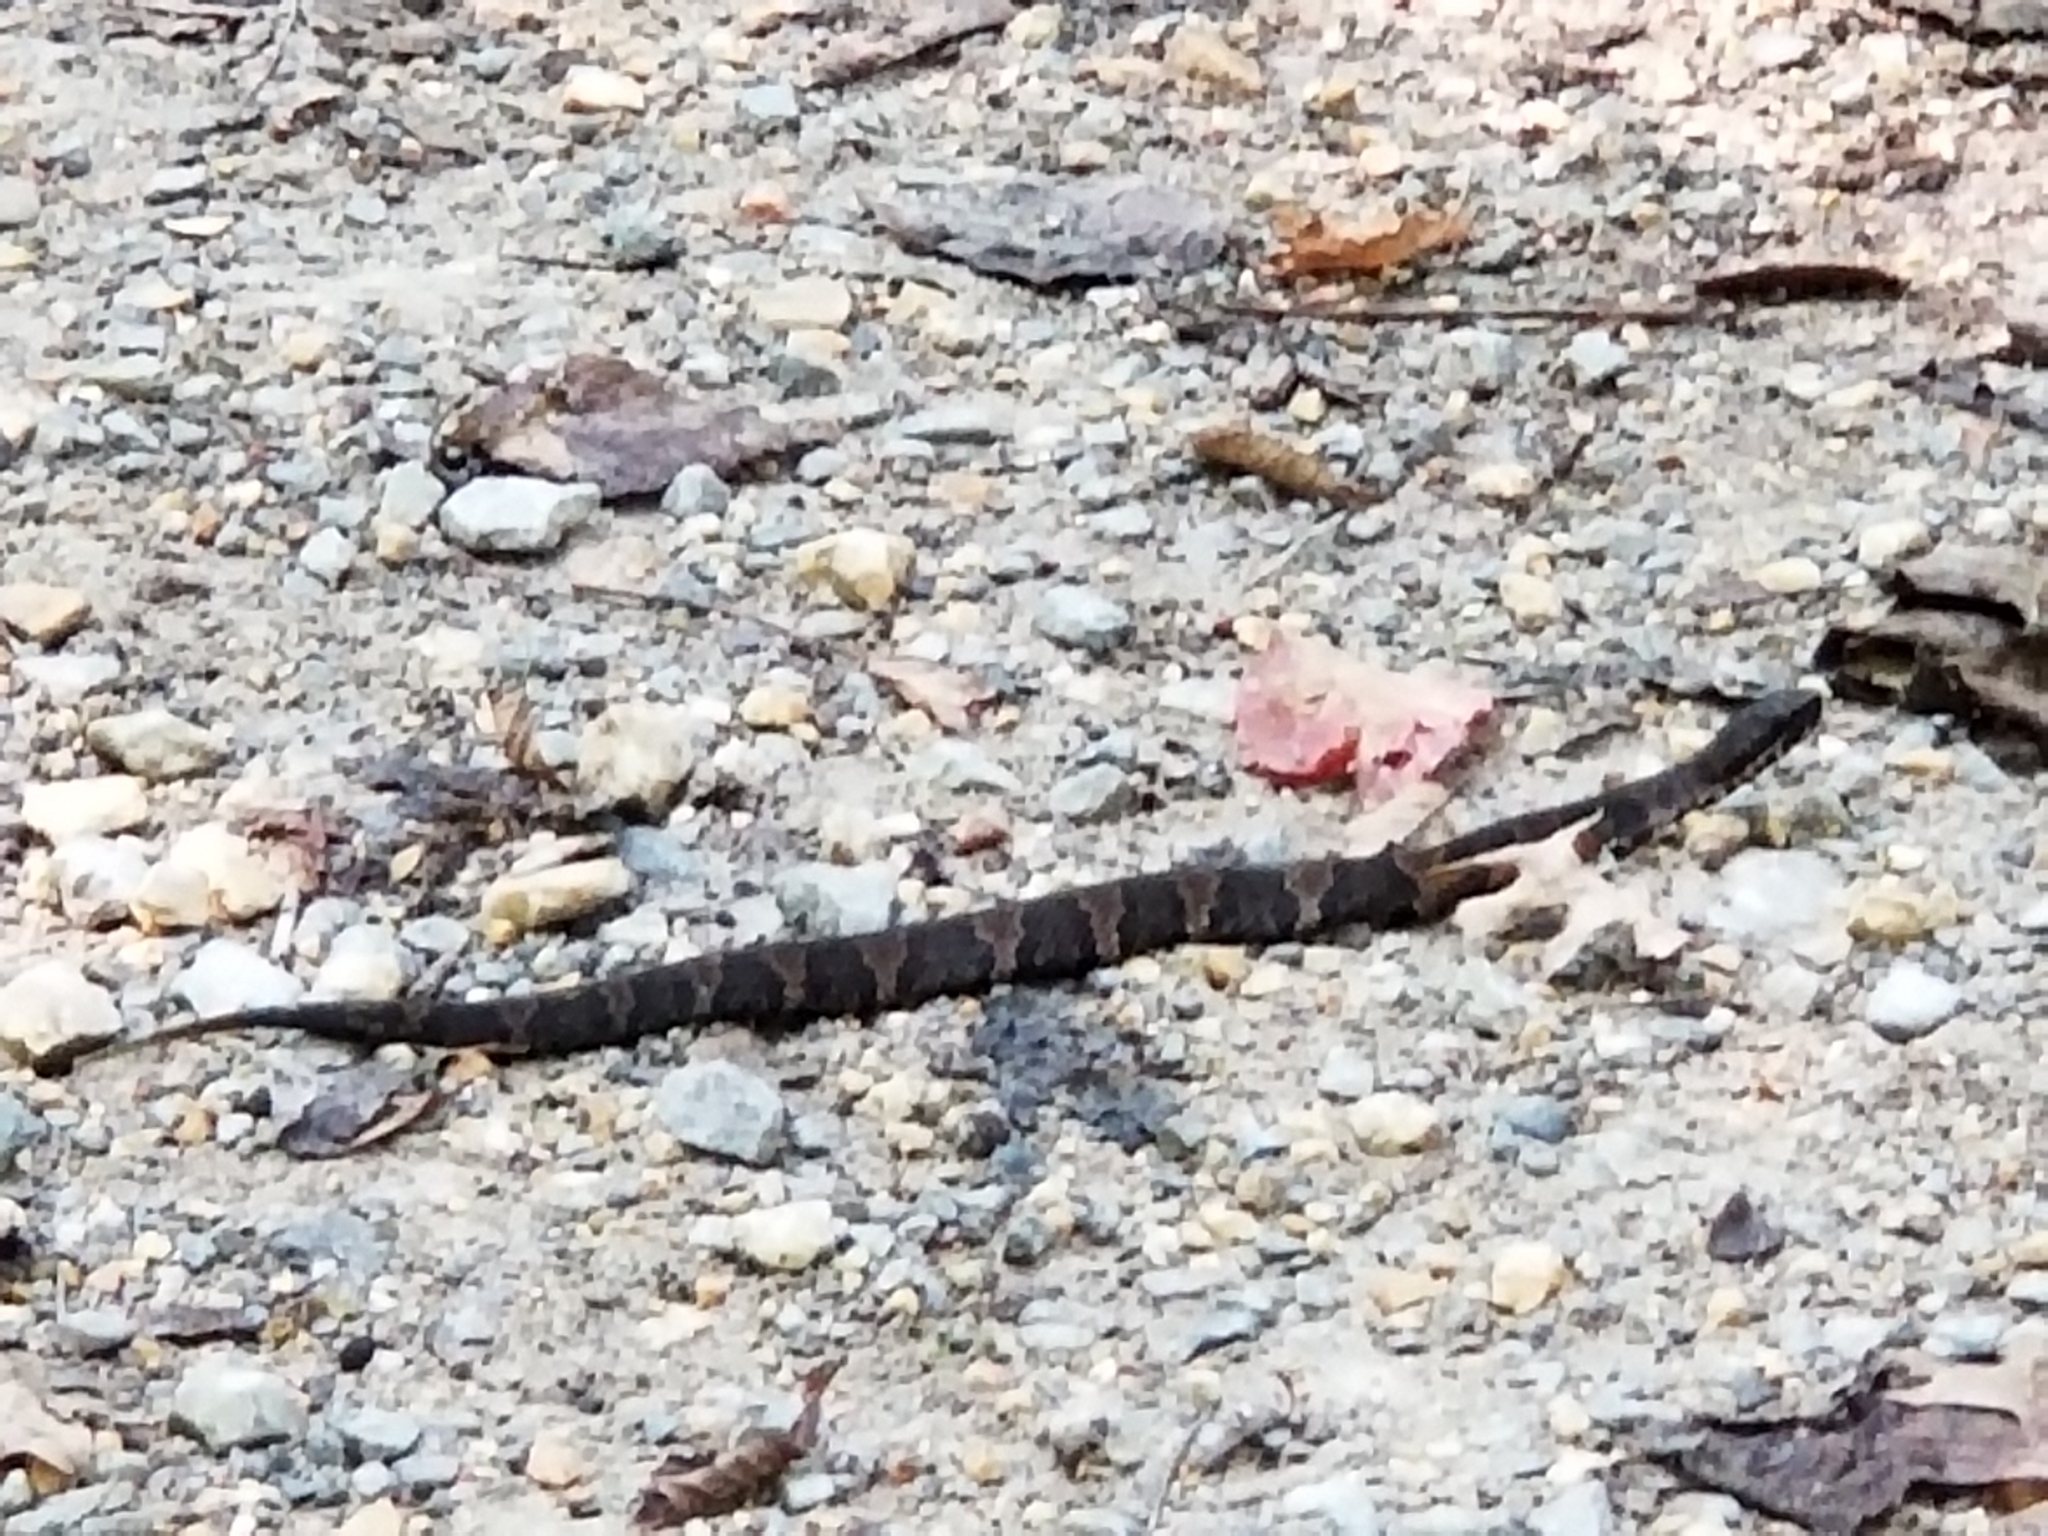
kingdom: Animalia
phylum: Chordata
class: Squamata
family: Viperidae
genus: Agkistrodon
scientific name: Agkistrodon piscivorus
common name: Cottonmouth
